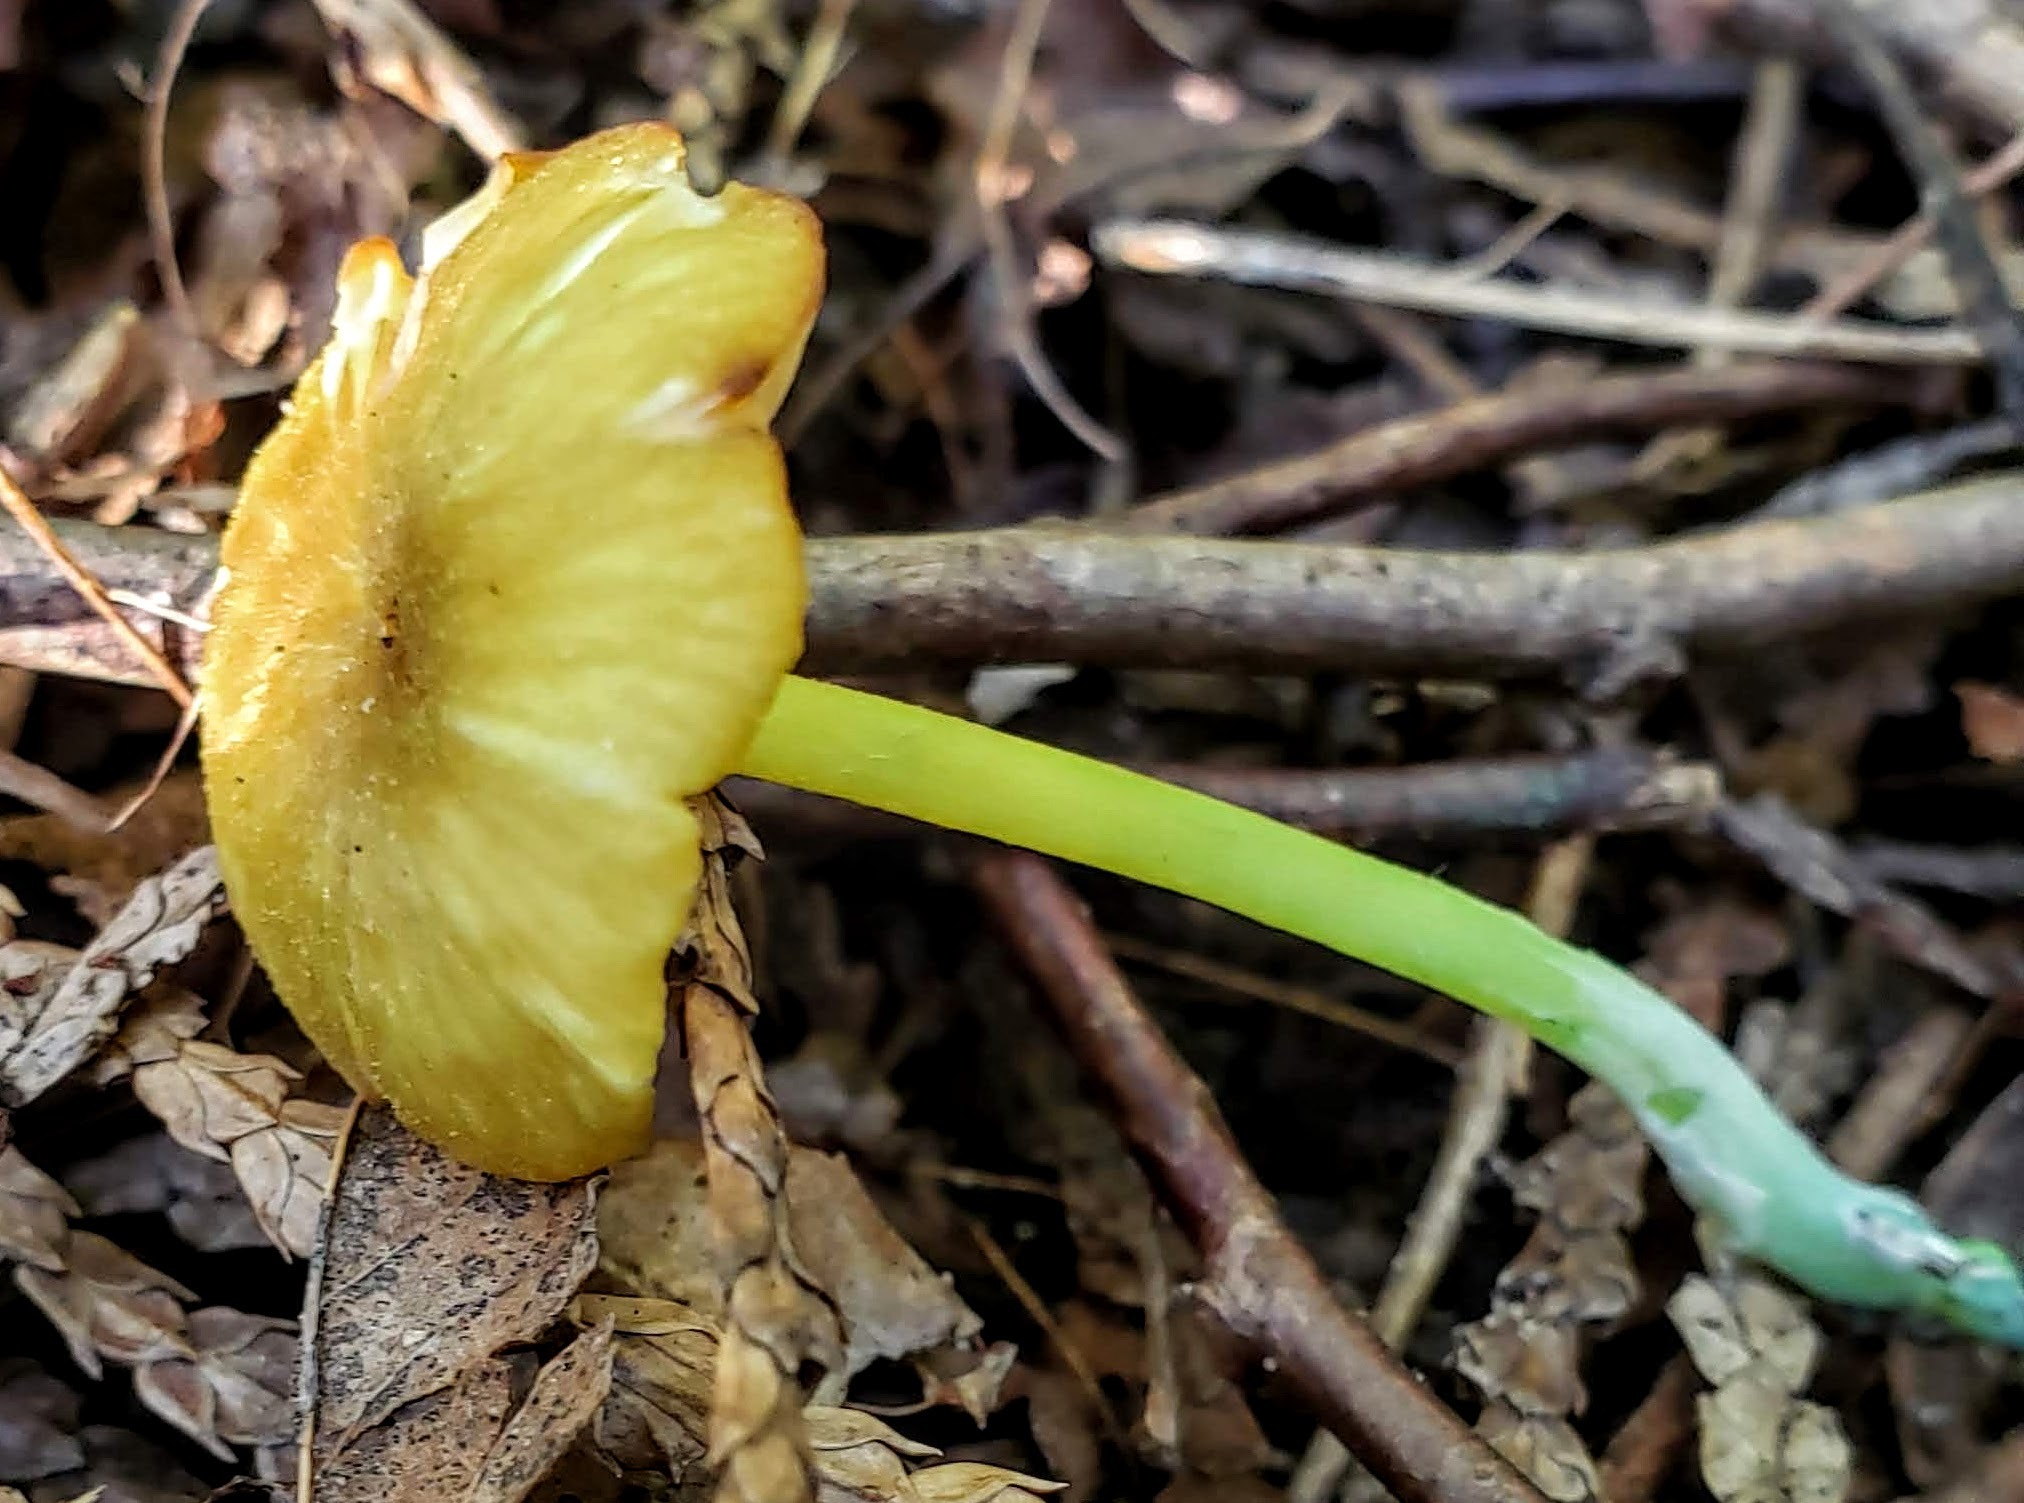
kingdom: Fungi
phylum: Basidiomycota
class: Agaricomycetes
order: Agaricales
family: Entolomataceae
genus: Entoloma
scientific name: Entoloma incanum
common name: Mousepee pinkgill
